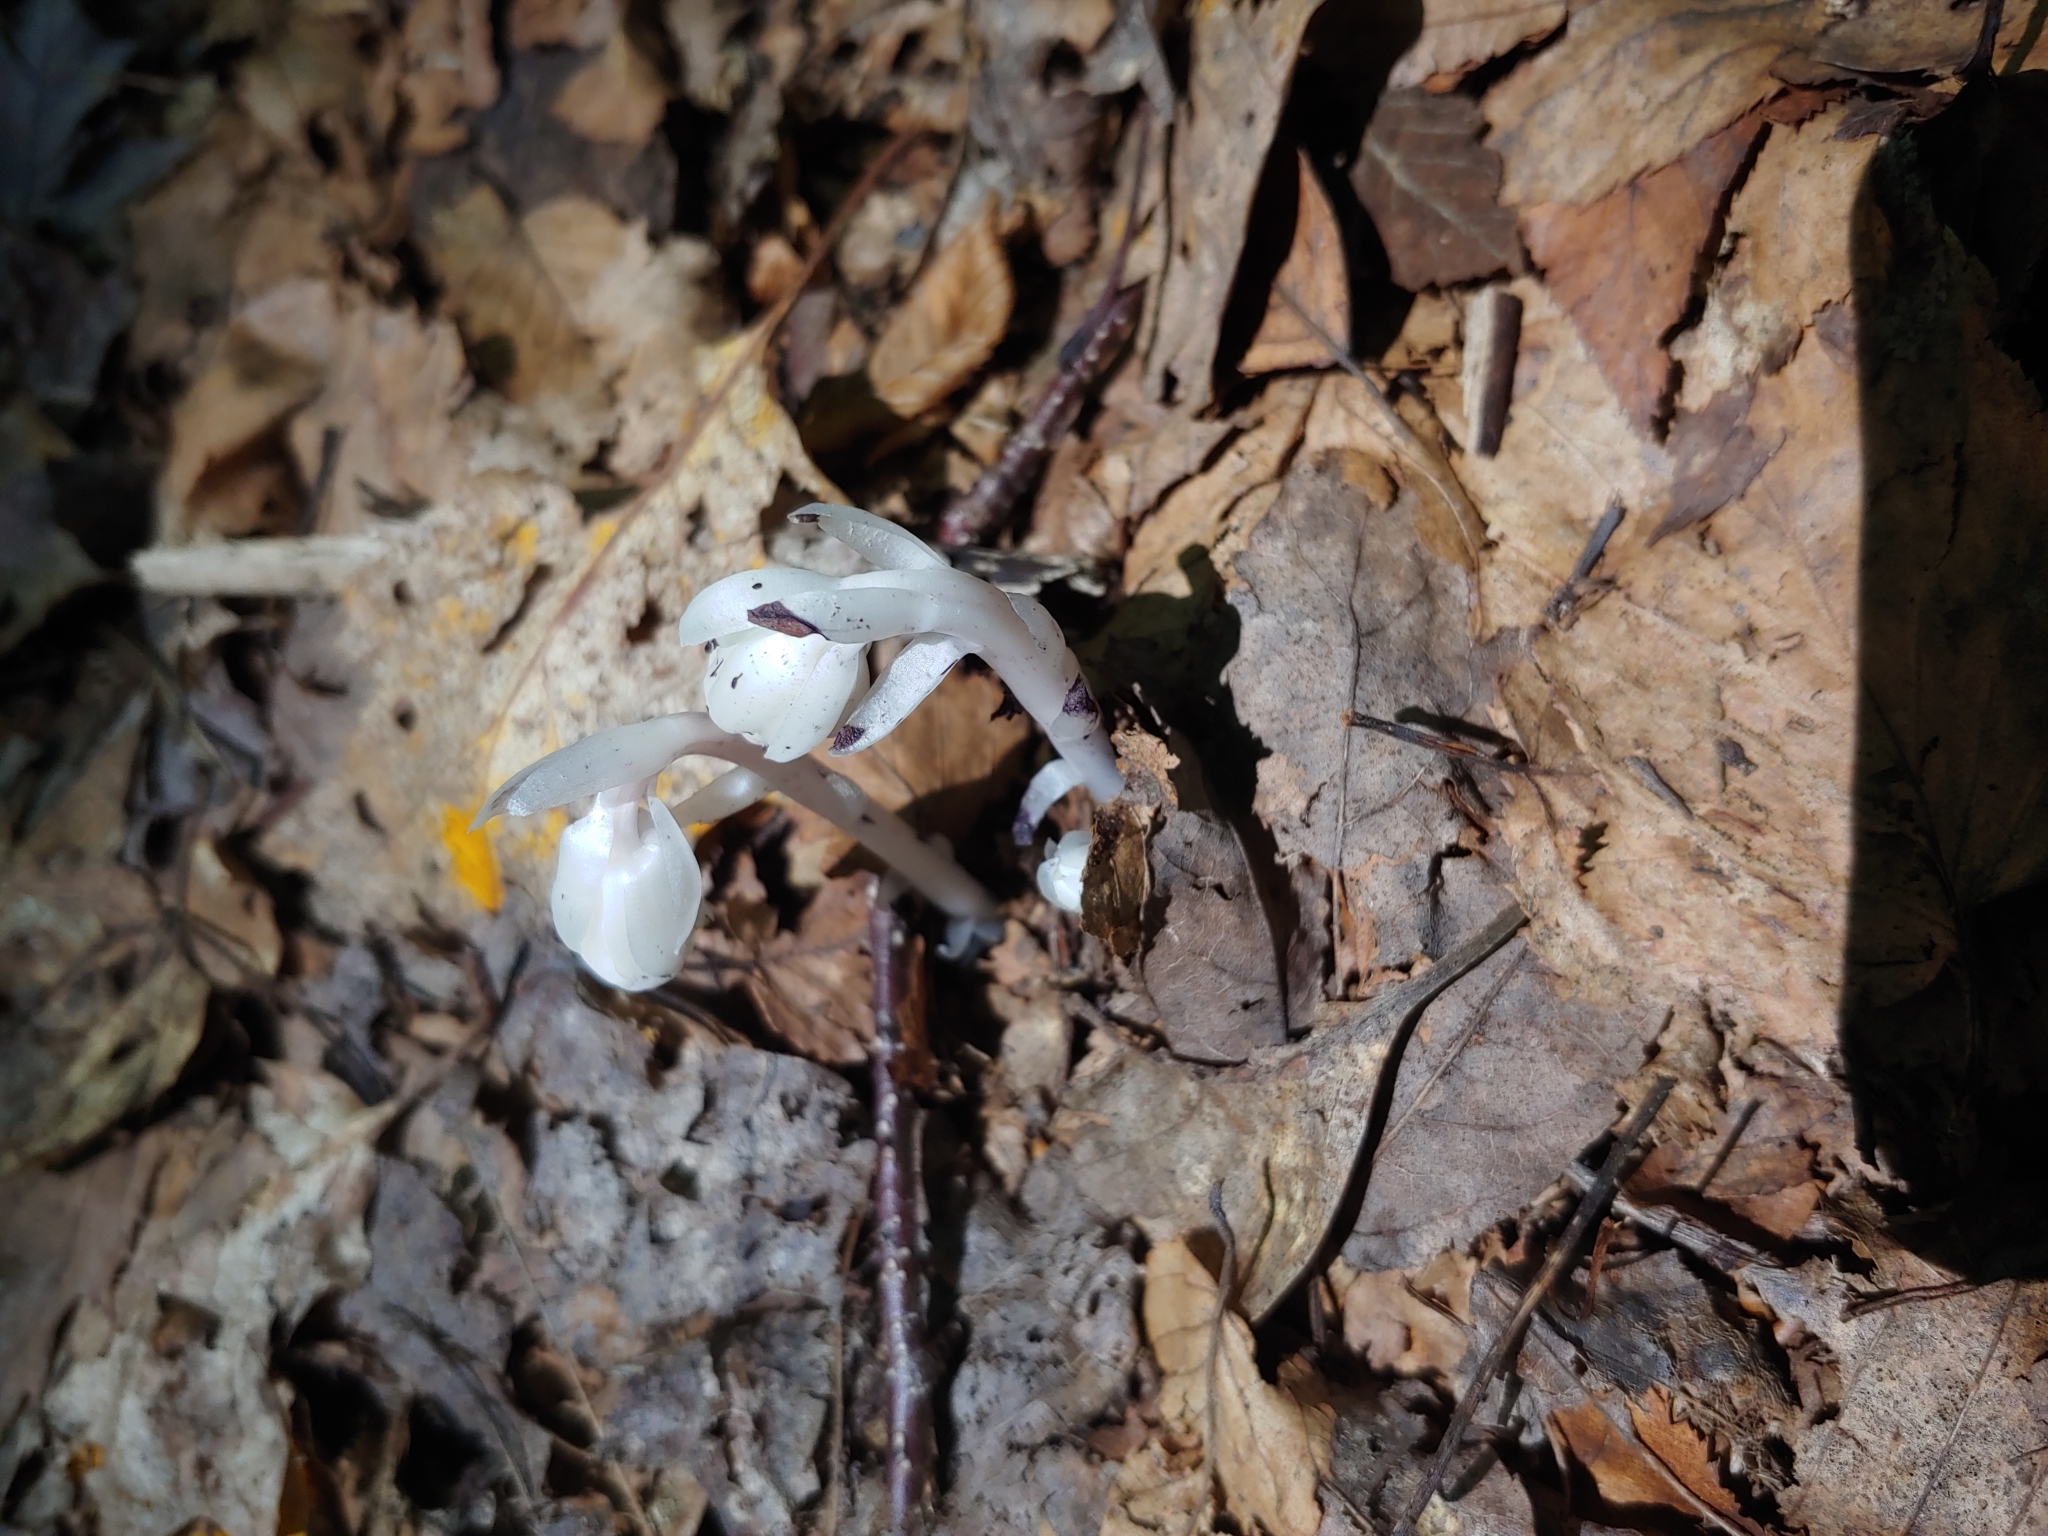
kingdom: Plantae
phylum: Tracheophyta
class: Magnoliopsida
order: Ericales
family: Ericaceae
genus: Monotropa
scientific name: Monotropa uniflora
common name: Convulsion root
